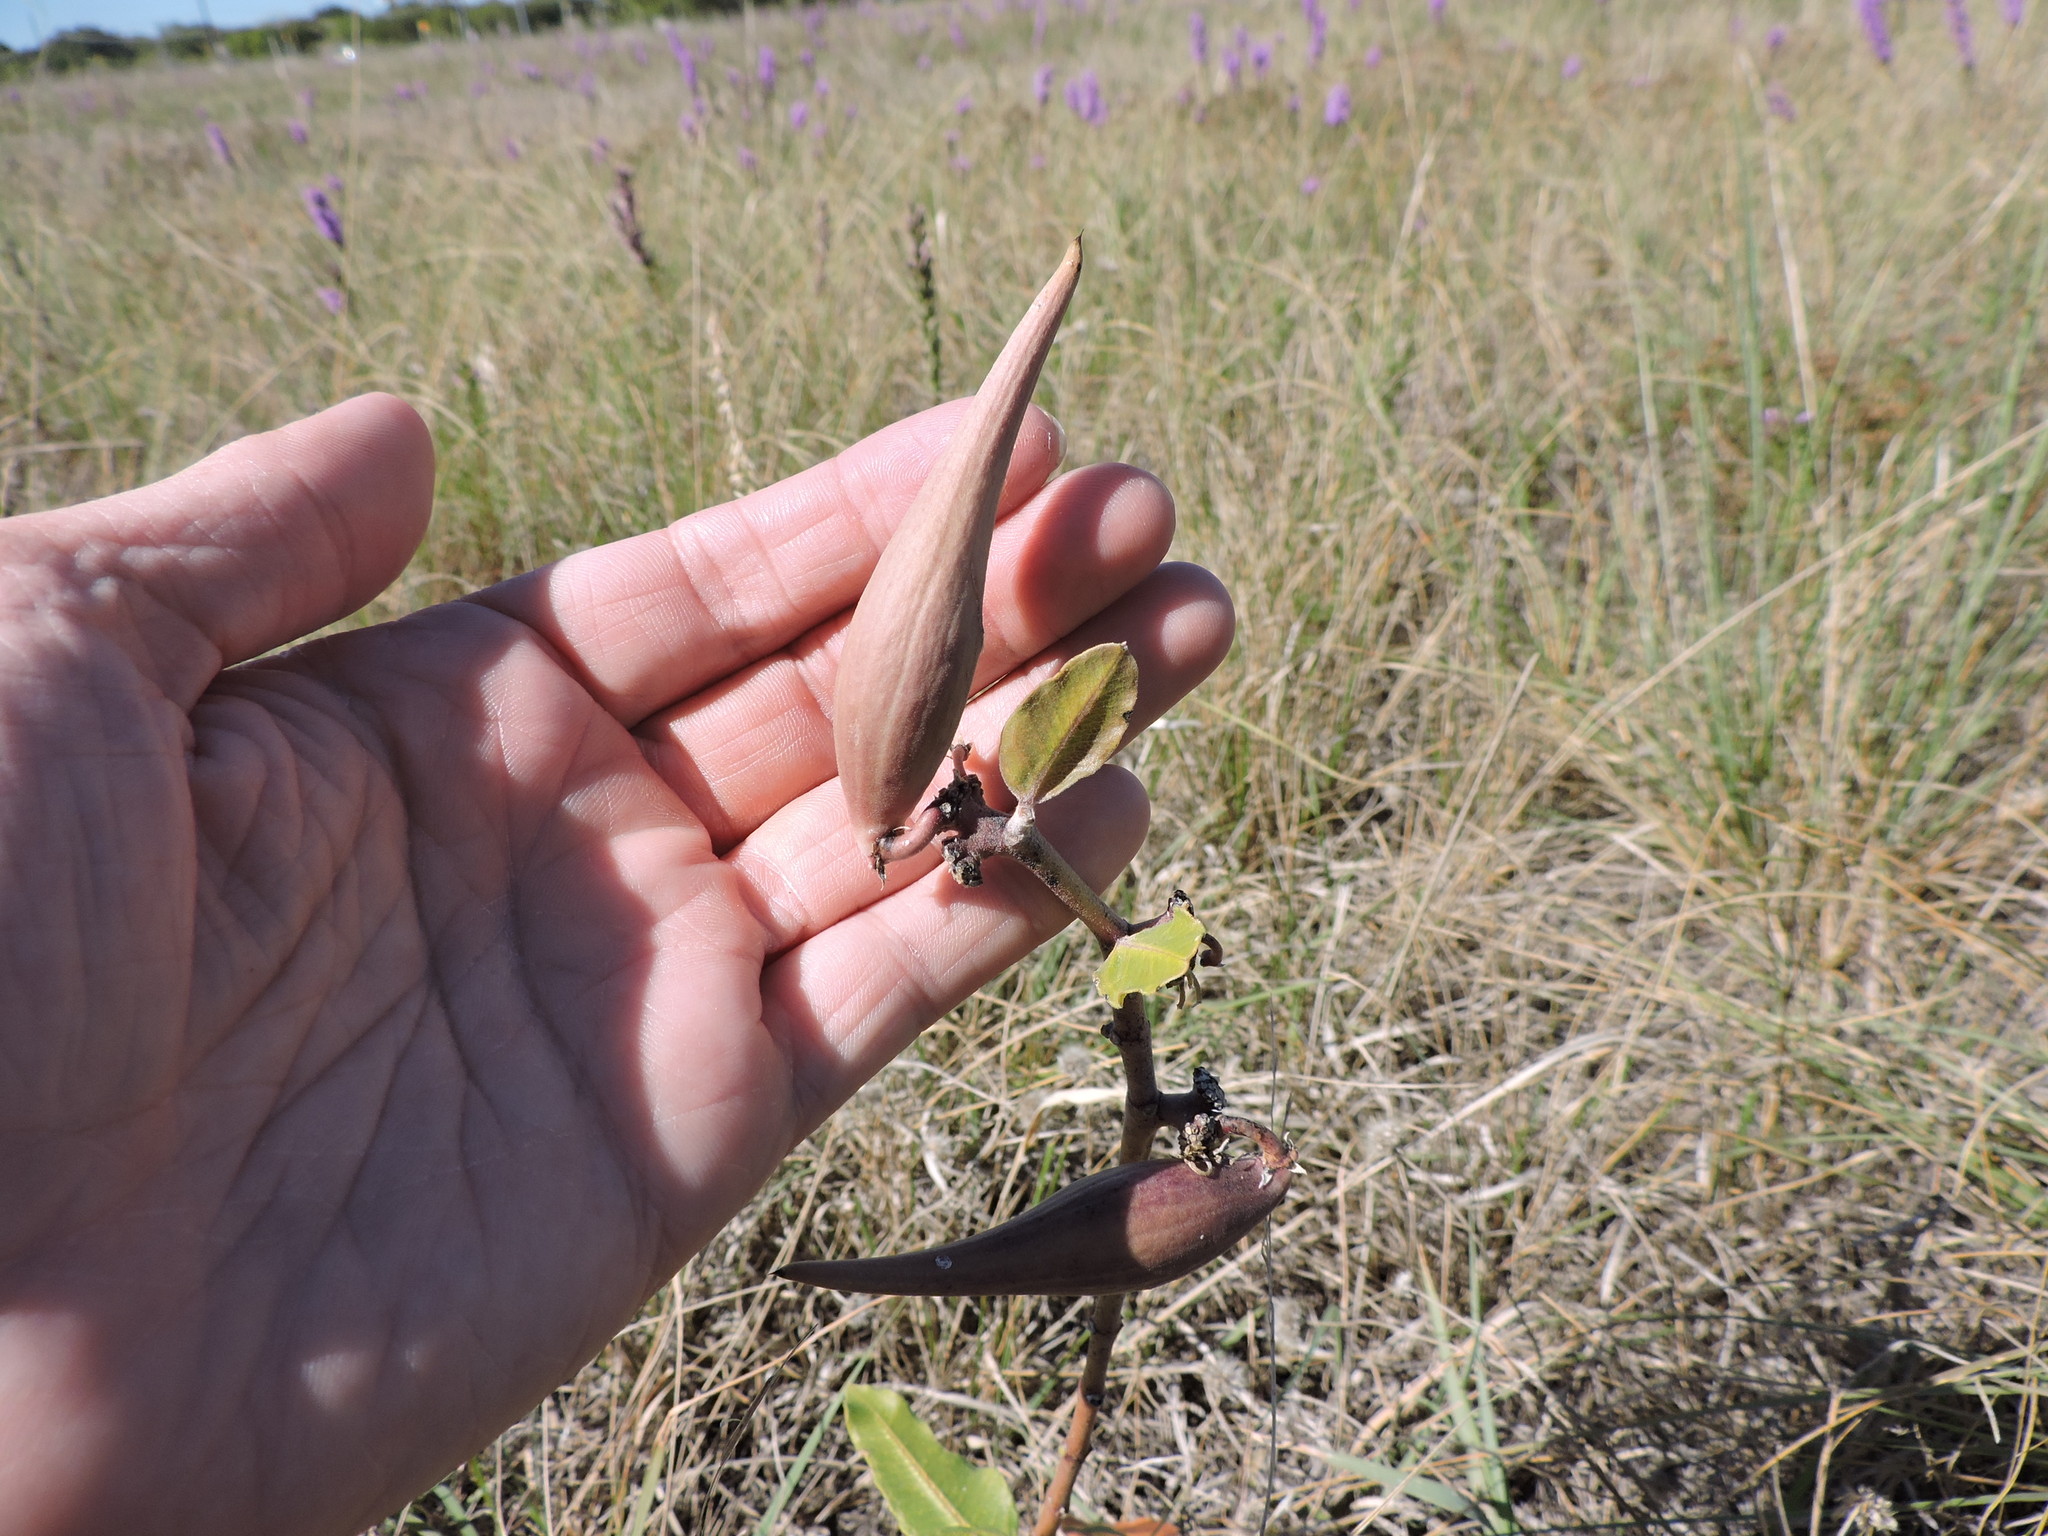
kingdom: Plantae
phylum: Tracheophyta
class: Magnoliopsida
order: Gentianales
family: Apocynaceae
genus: Asclepias
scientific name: Asclepias viridiflora
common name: Green comet milkweed
